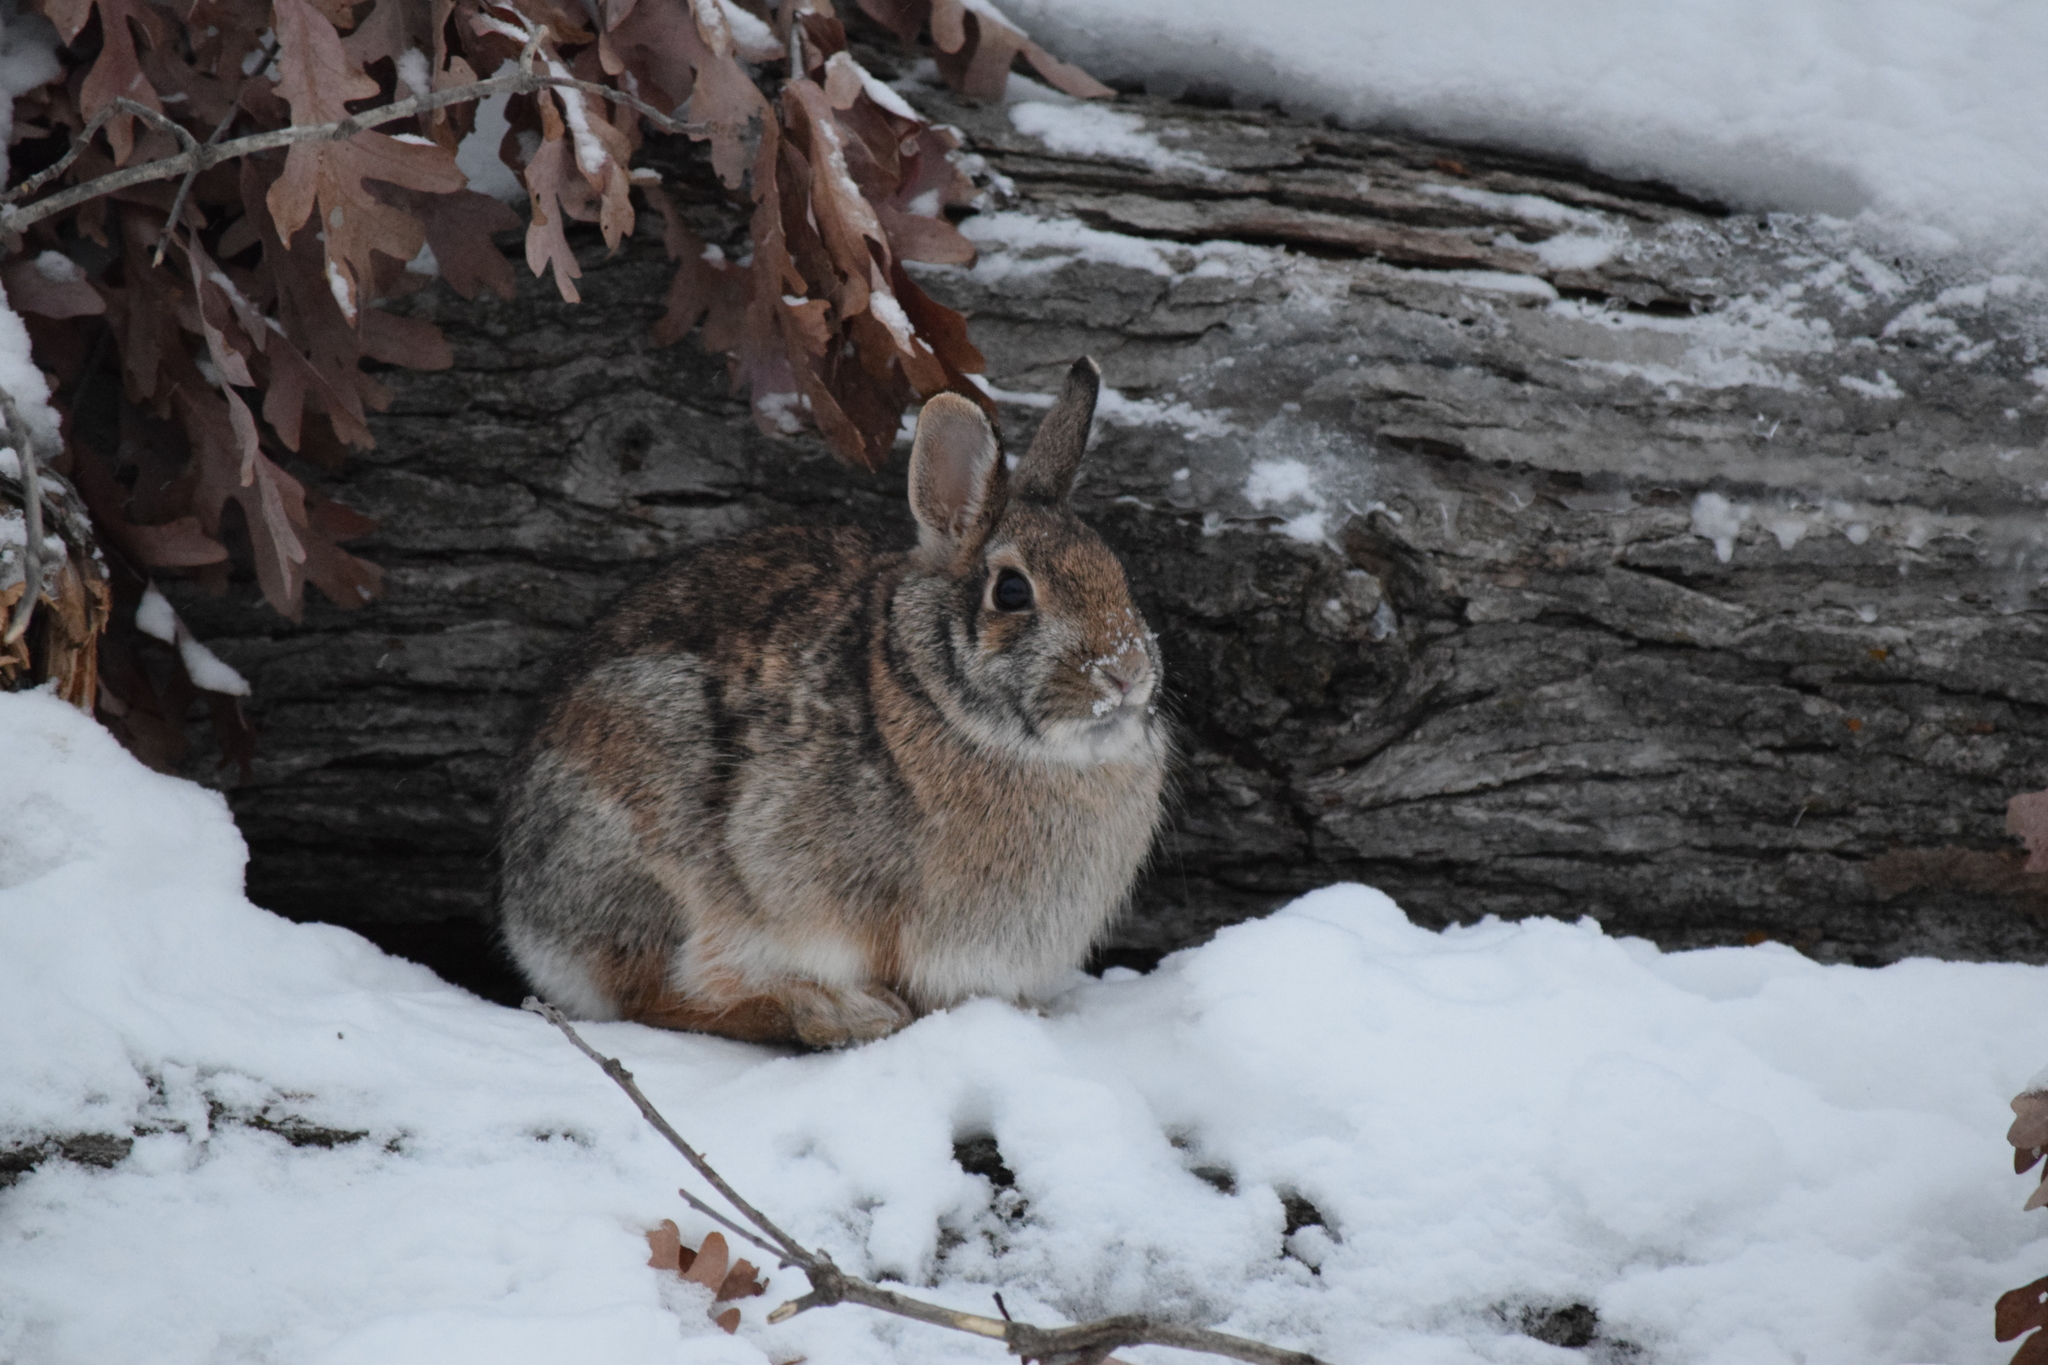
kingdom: Animalia
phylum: Chordata
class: Mammalia
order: Lagomorpha
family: Leporidae
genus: Sylvilagus
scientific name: Sylvilagus floridanus
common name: Eastern cottontail
